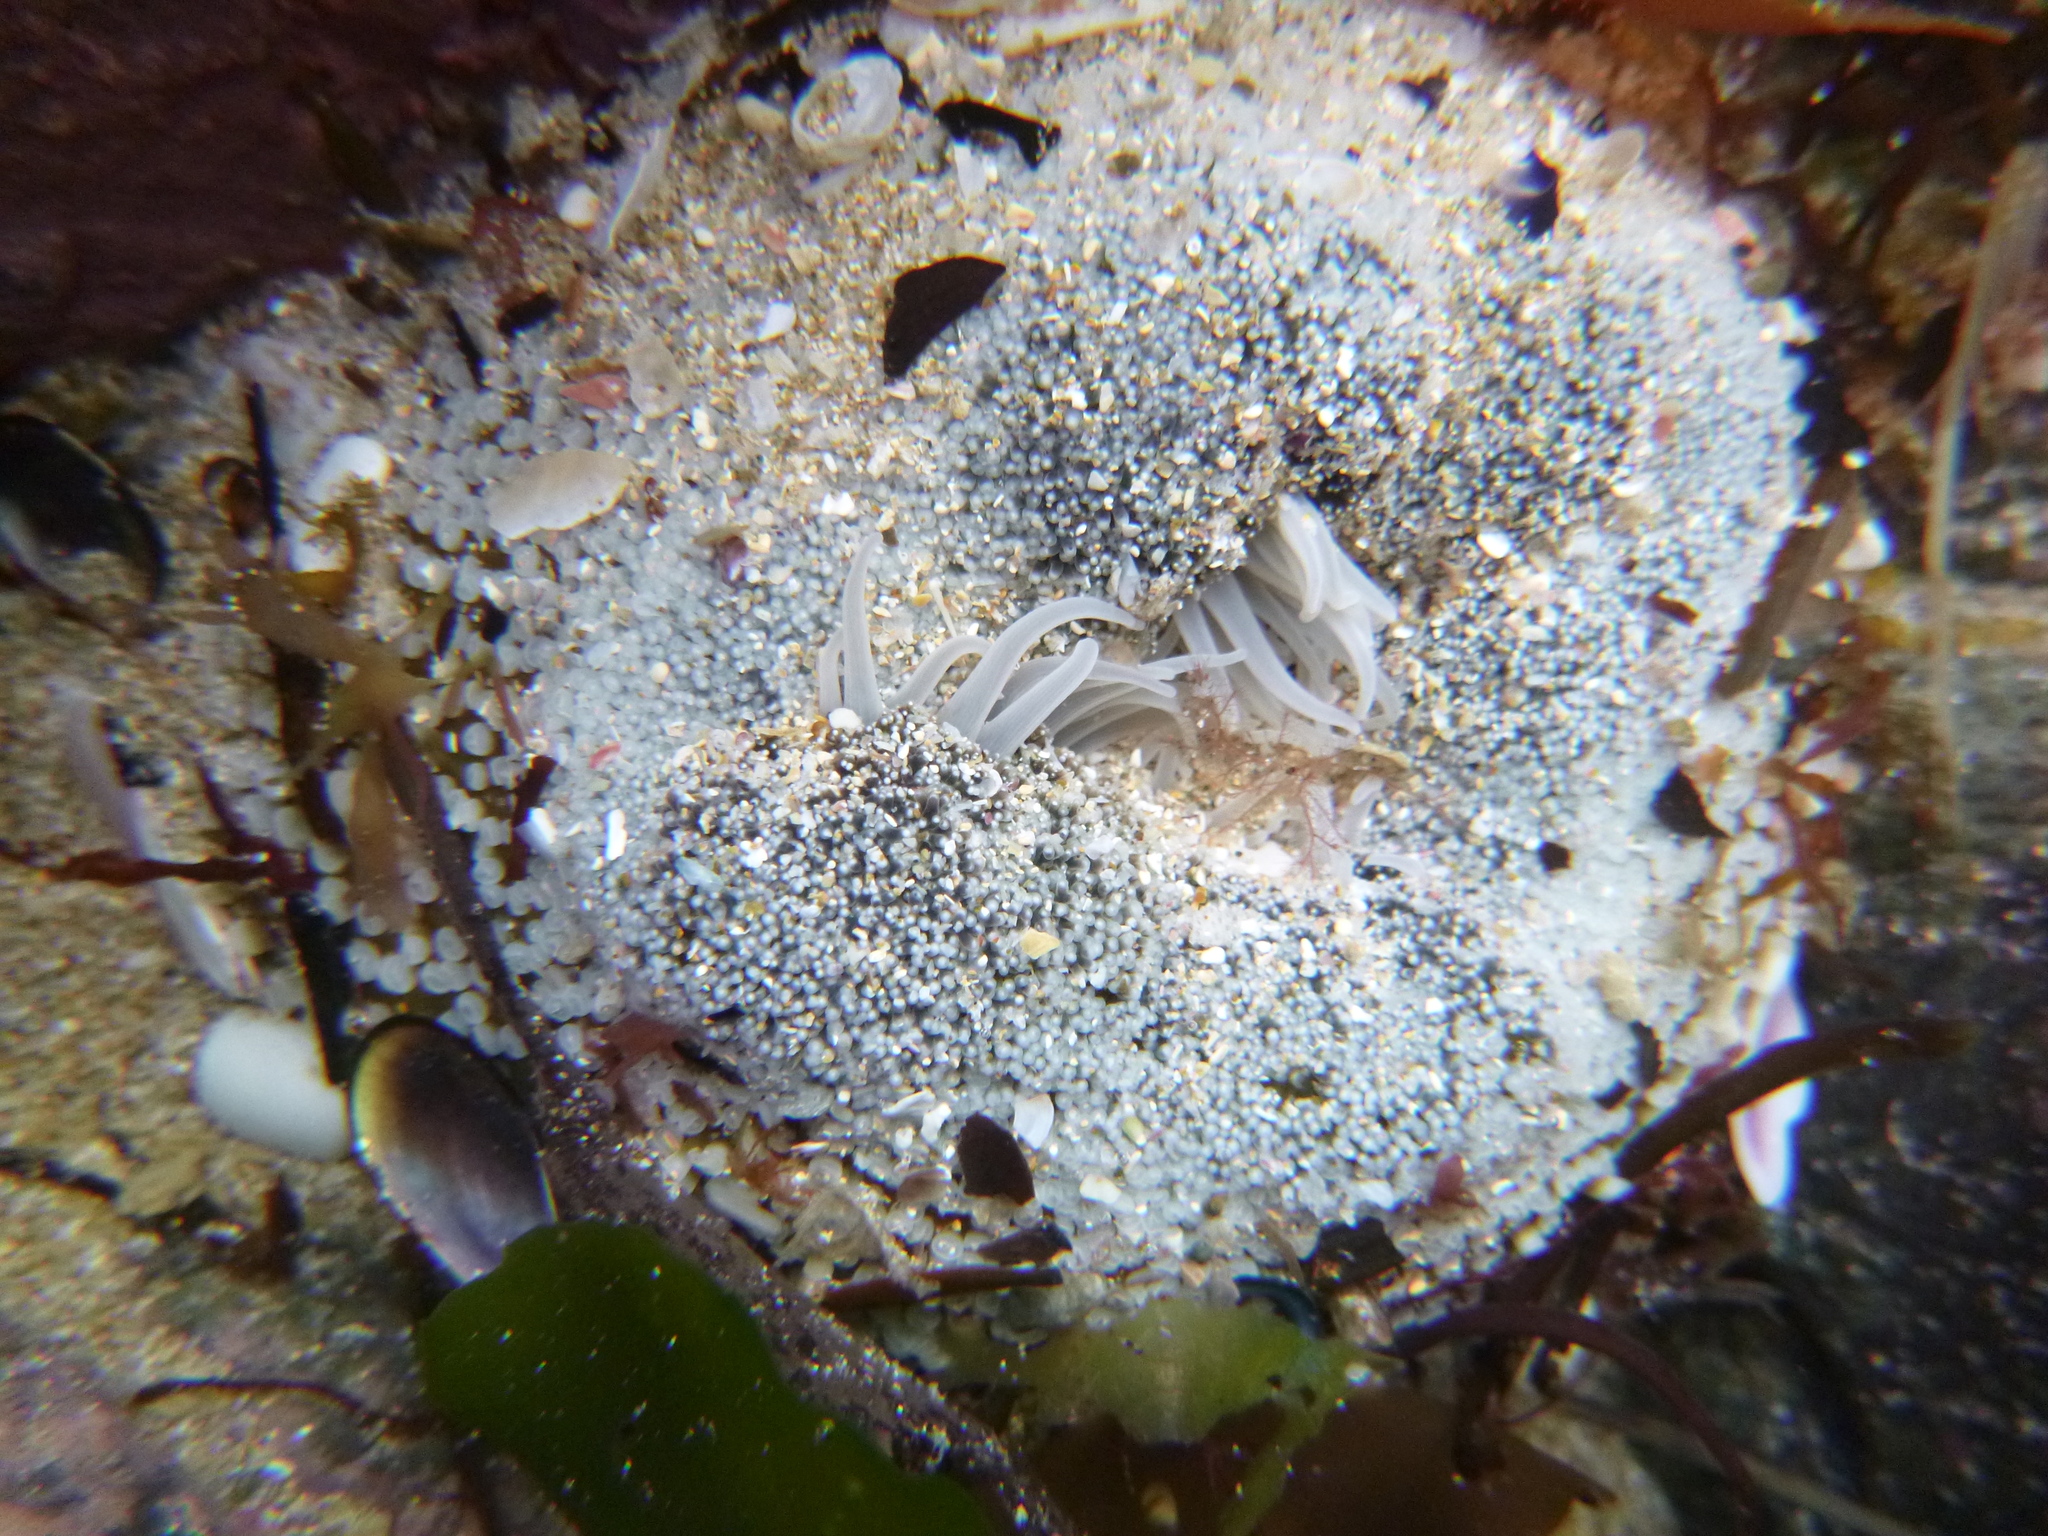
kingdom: Animalia
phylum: Cnidaria
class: Anthozoa
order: Actiniaria
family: Actiniidae
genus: Oulactis
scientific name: Oulactis magna
